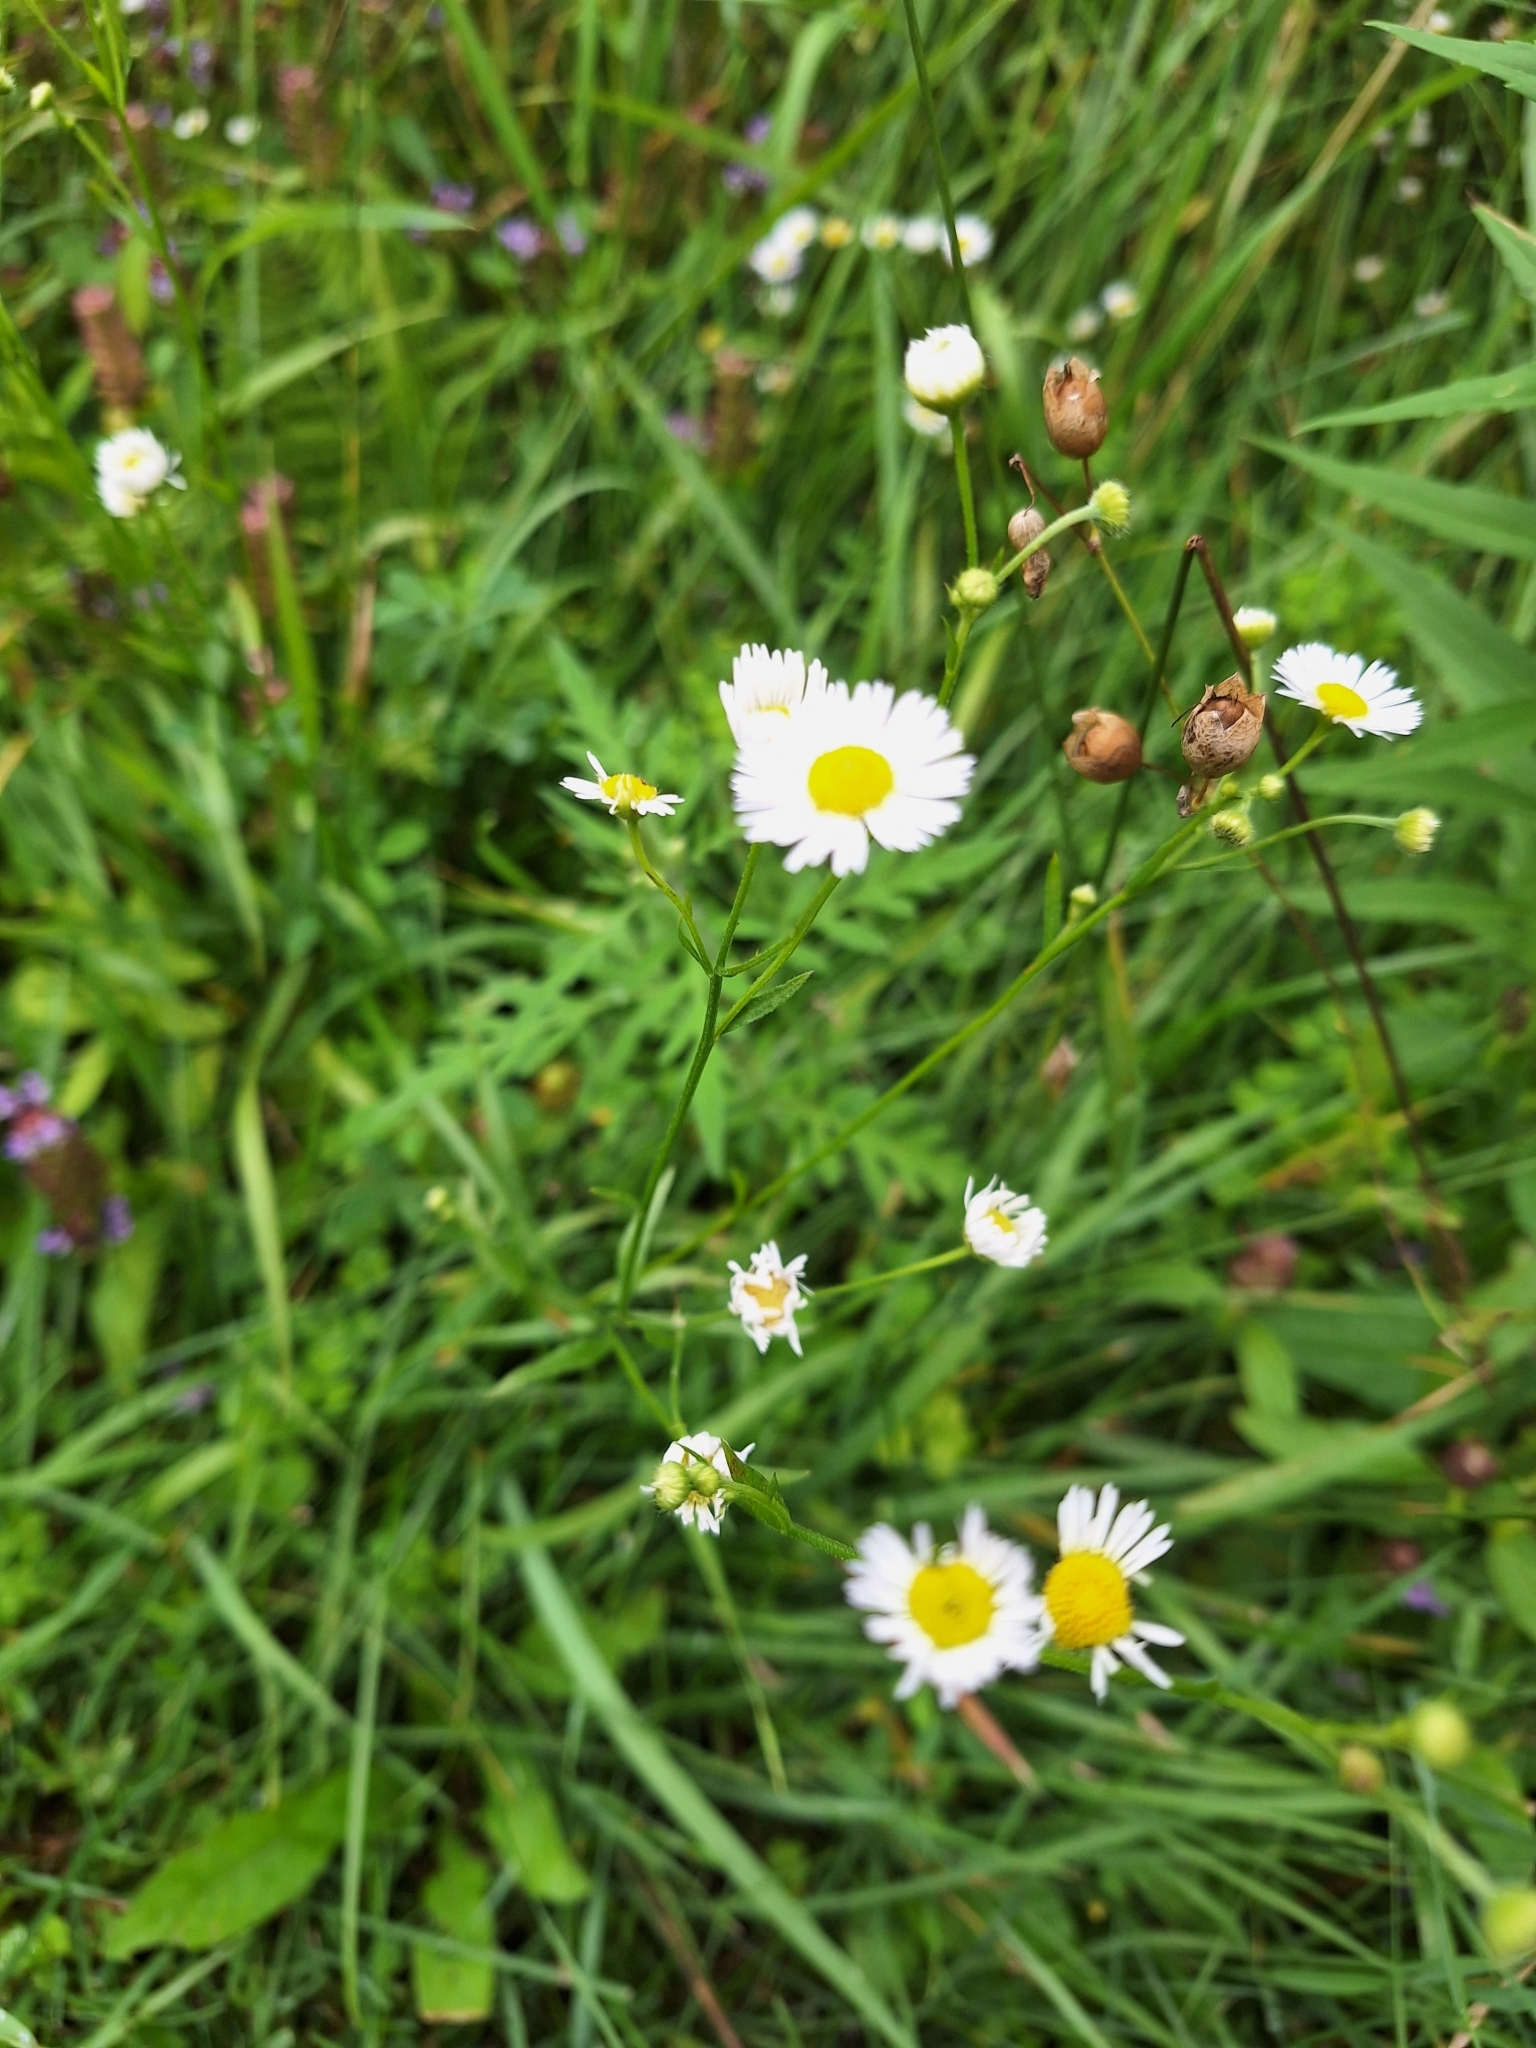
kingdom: Plantae
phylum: Tracheophyta
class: Magnoliopsida
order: Asterales
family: Asteraceae
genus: Erigeron
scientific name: Erigeron strigosus
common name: Common eastern fleabane
